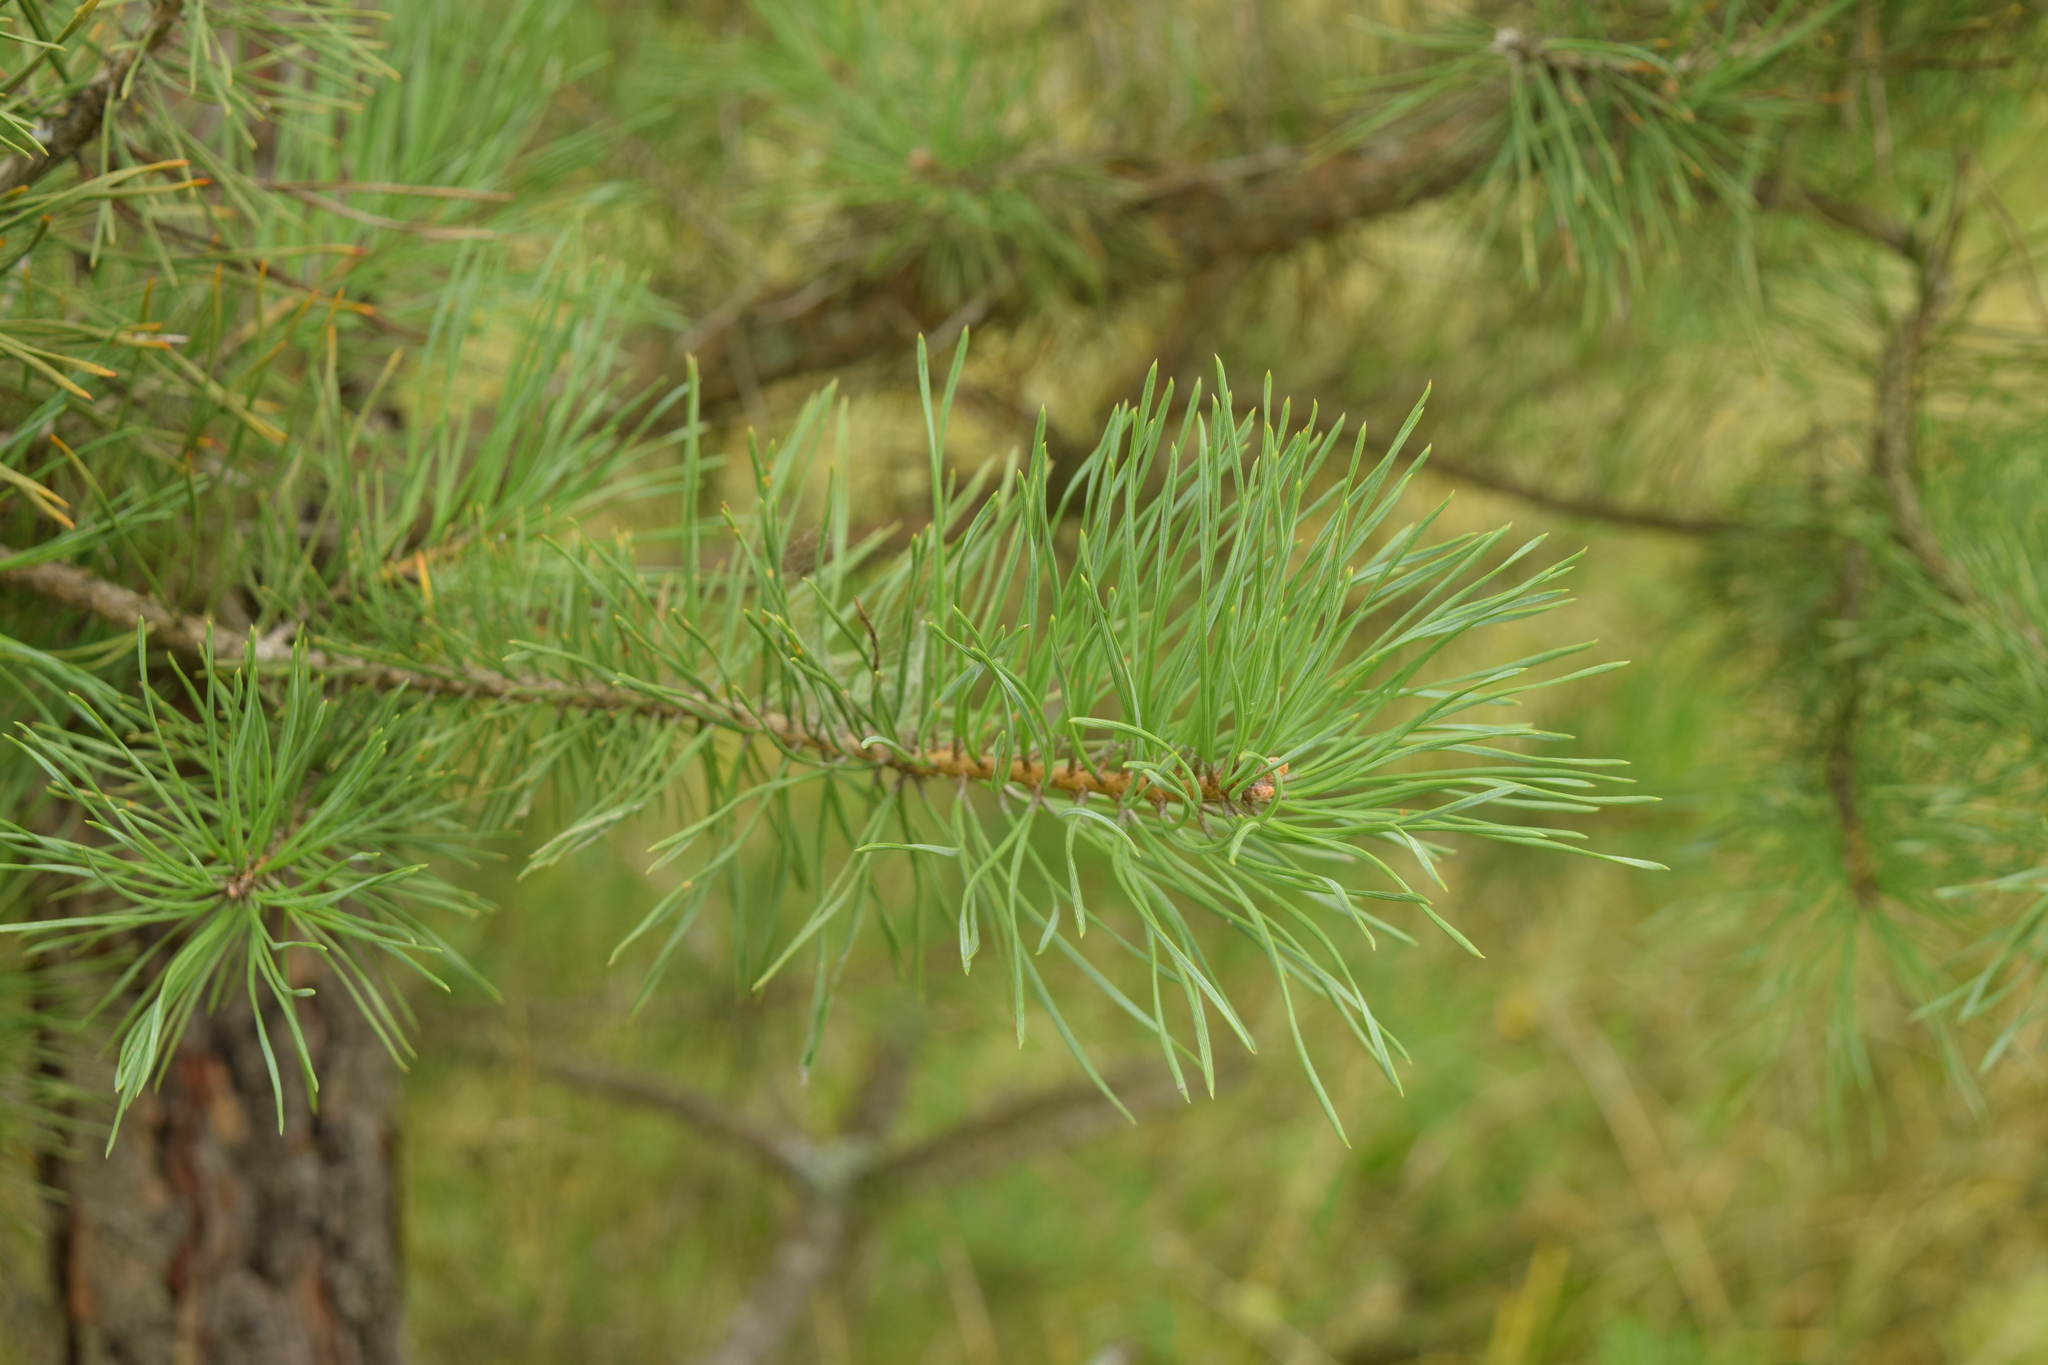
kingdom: Plantae
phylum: Tracheophyta
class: Pinopsida
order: Pinales
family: Pinaceae
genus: Pinus
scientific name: Pinus sylvestris
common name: Scots pine
